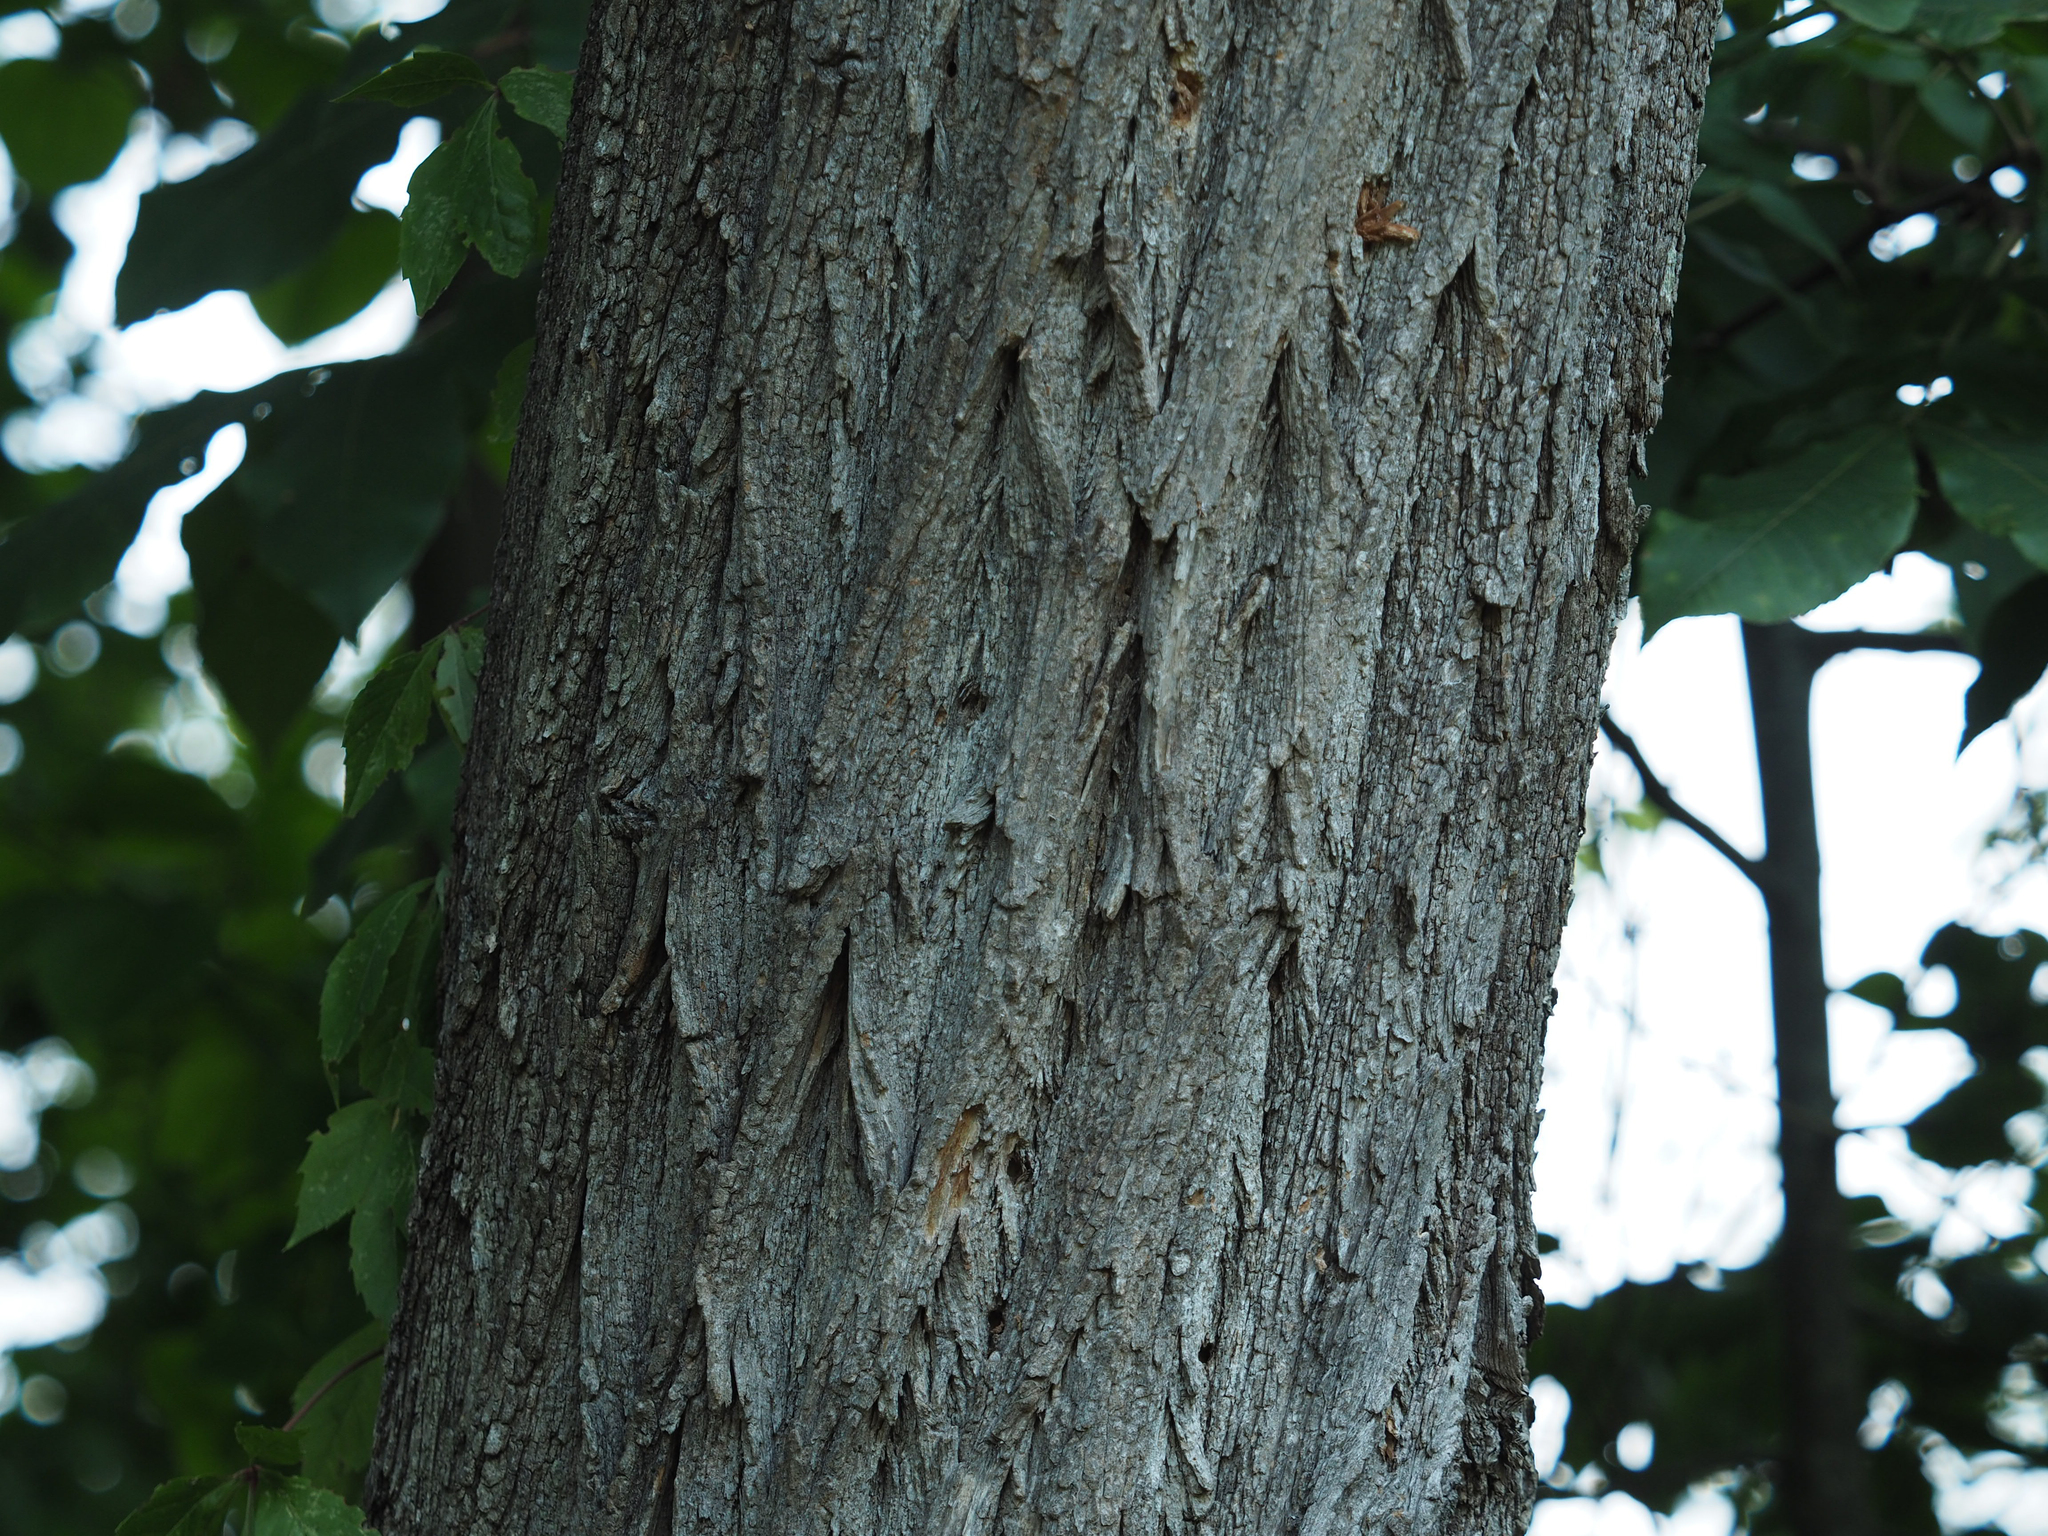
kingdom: Plantae
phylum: Tracheophyta
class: Magnoliopsida
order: Fabales
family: Fabaceae
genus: Robinia
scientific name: Robinia pseudoacacia
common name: Black locust
